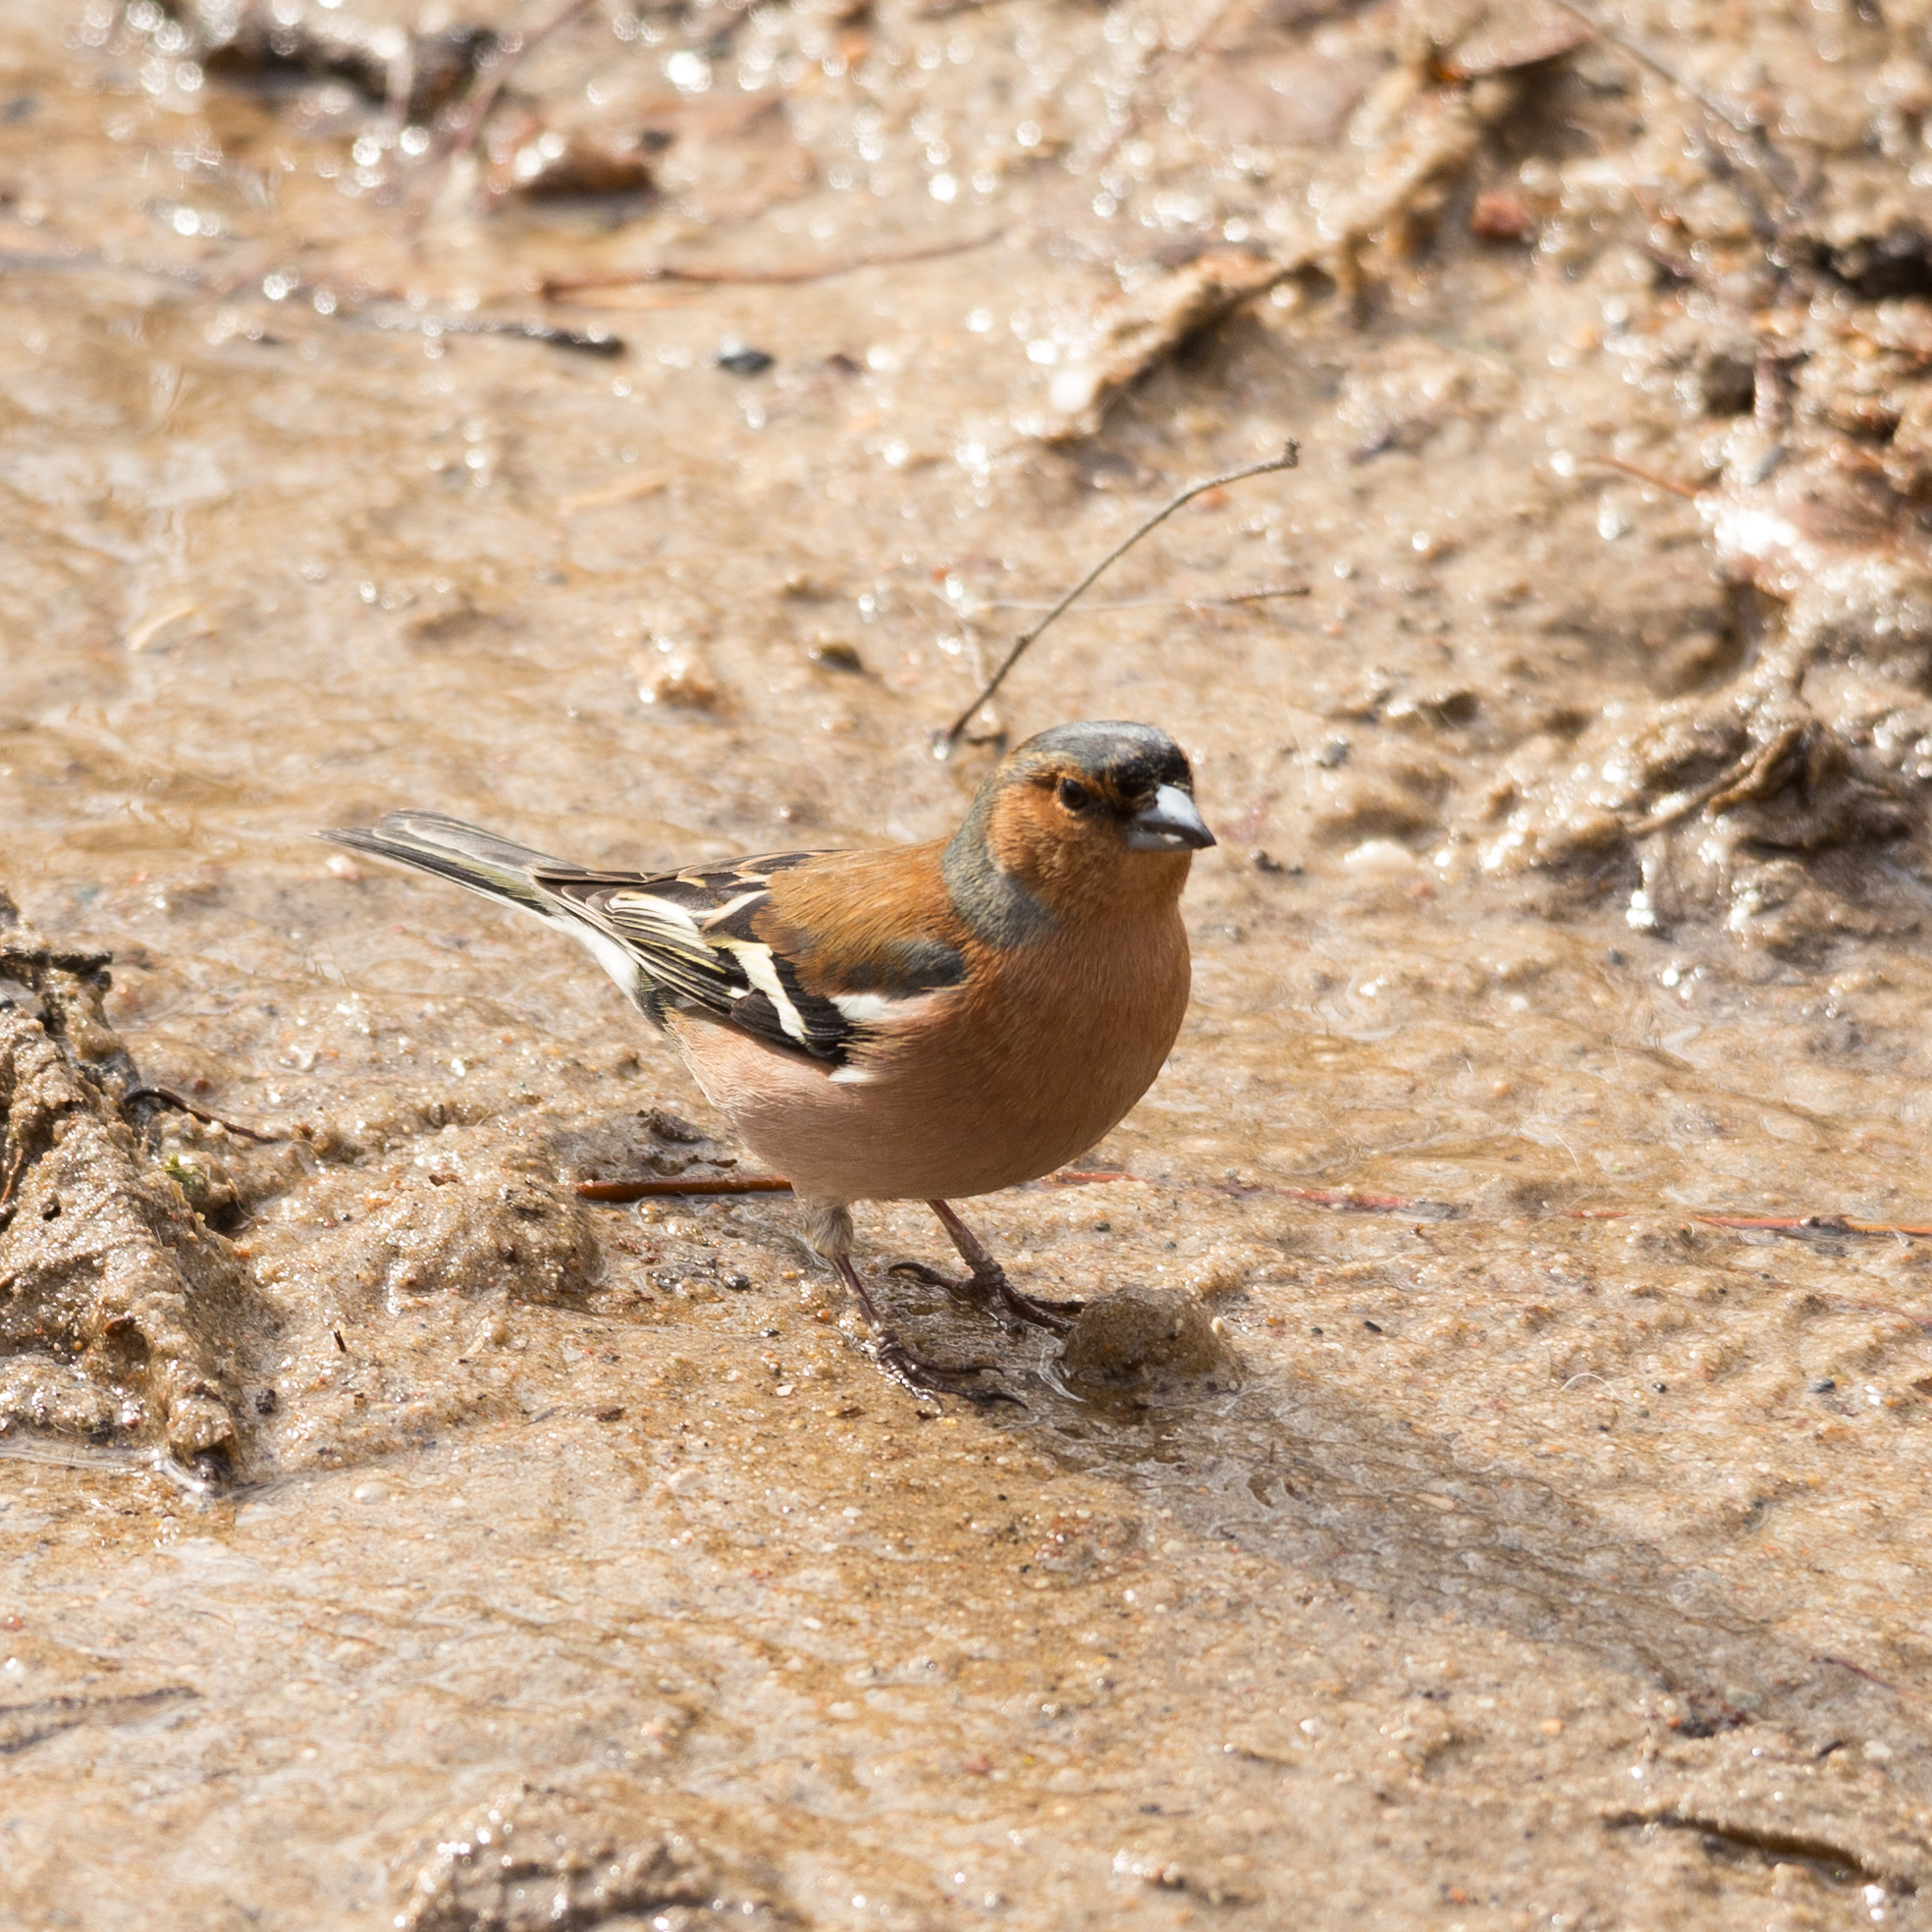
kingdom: Animalia
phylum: Chordata
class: Aves
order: Passeriformes
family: Fringillidae
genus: Fringilla
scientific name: Fringilla coelebs
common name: Common chaffinch
